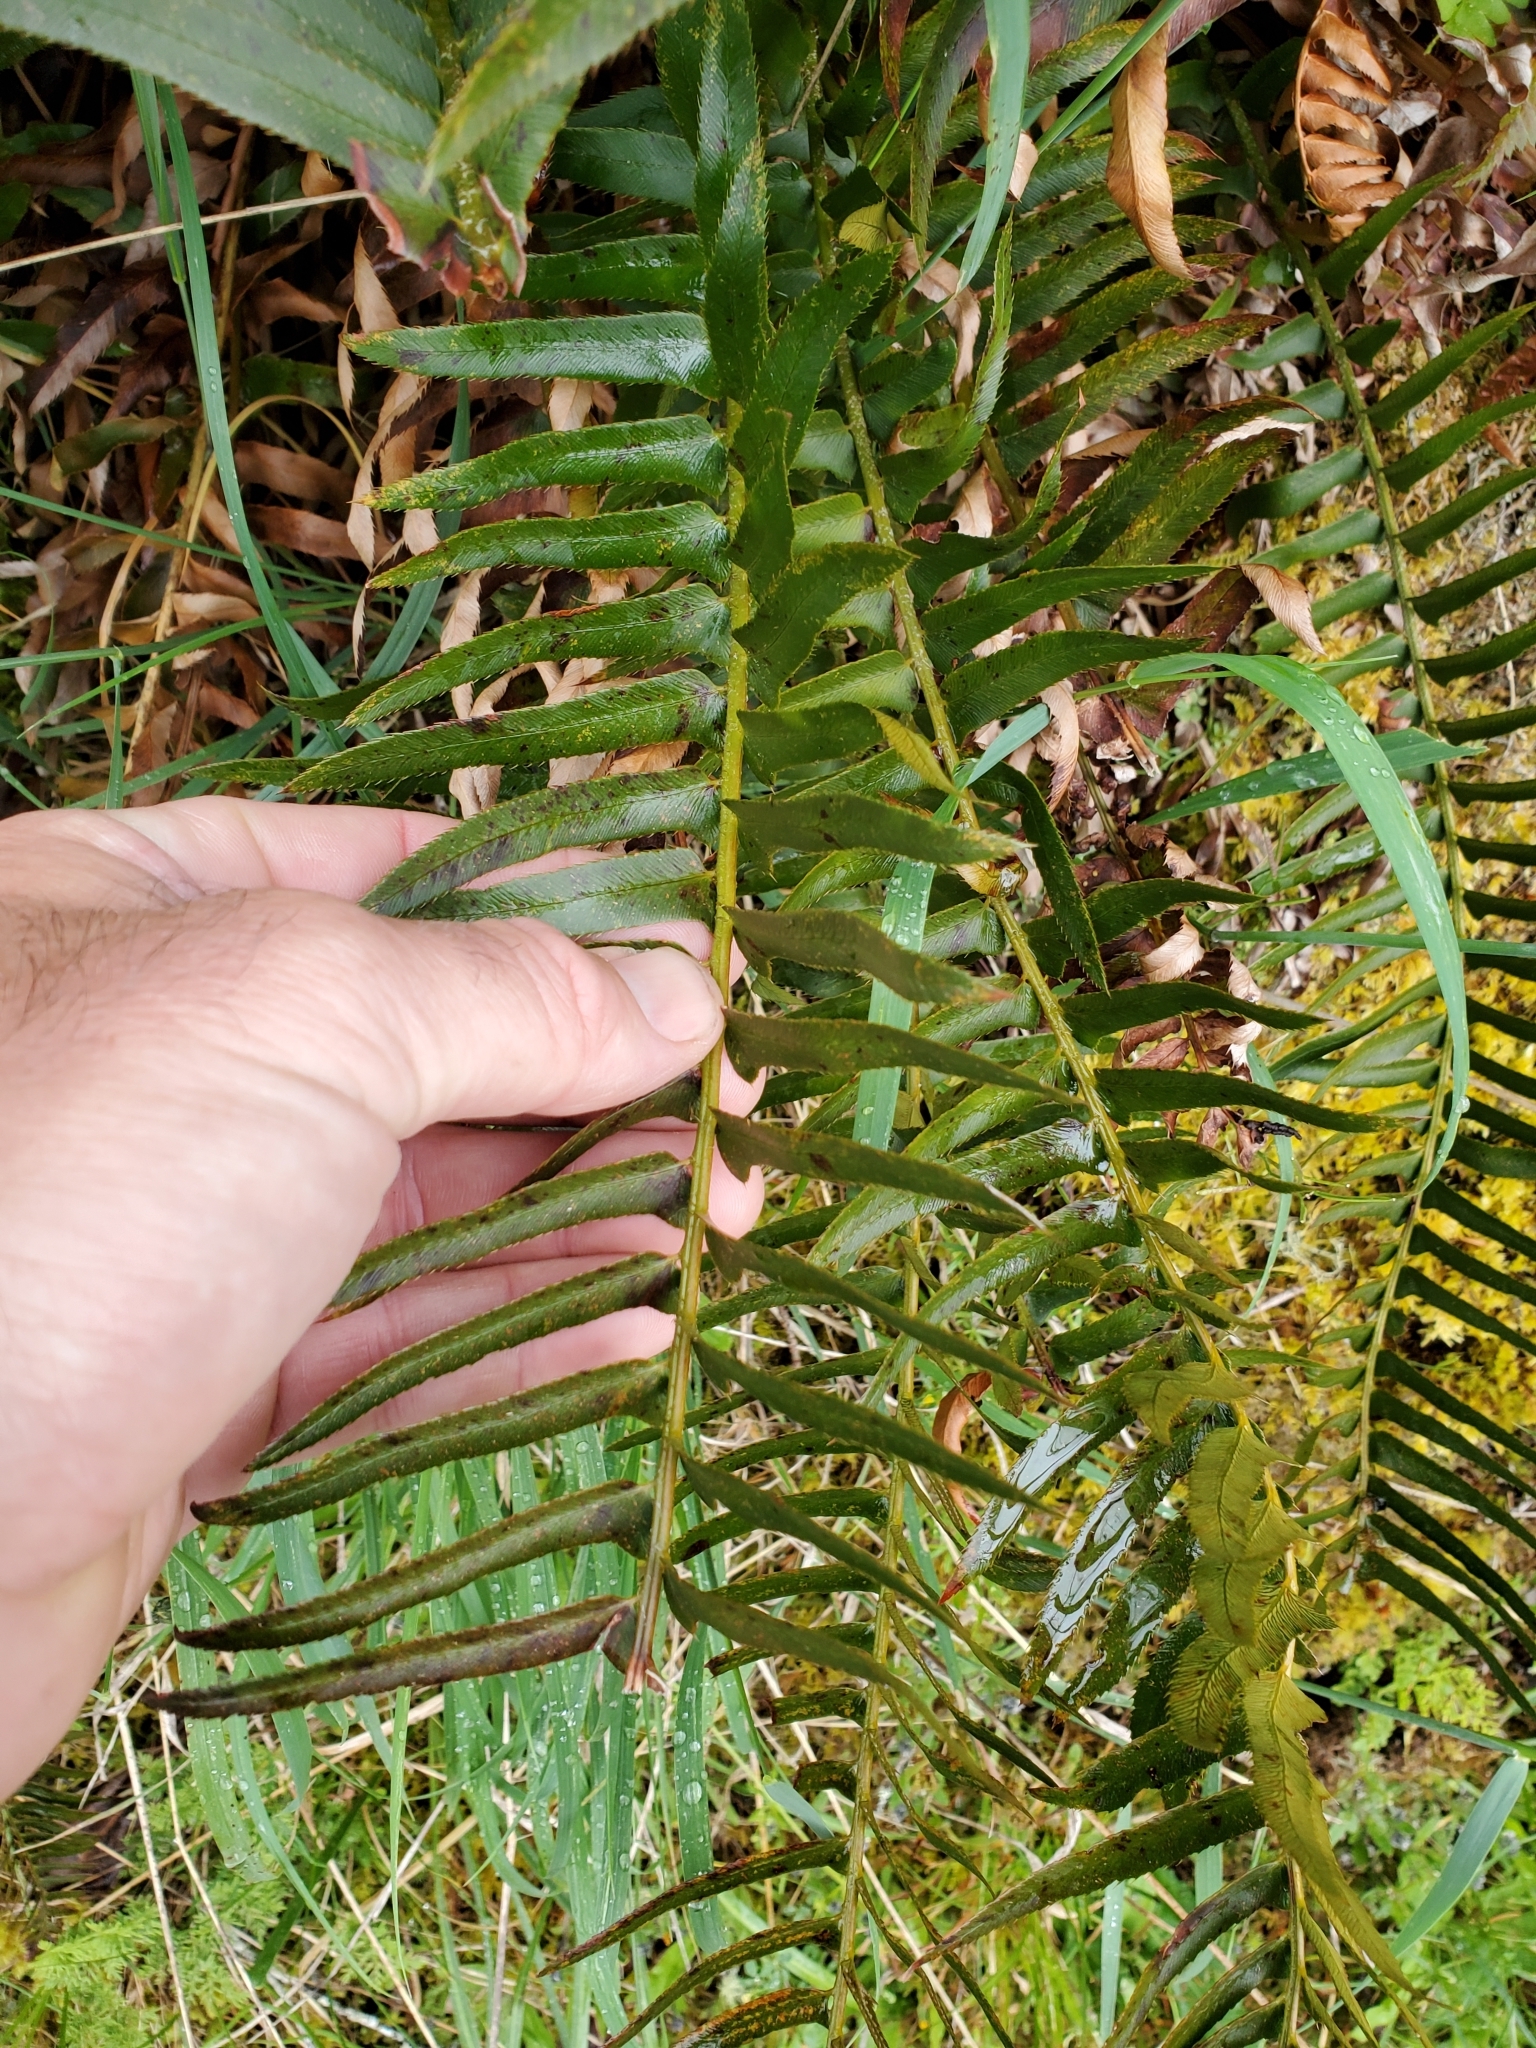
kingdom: Plantae
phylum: Tracheophyta
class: Polypodiopsida
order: Polypodiales
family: Dryopteridaceae
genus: Polystichum
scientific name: Polystichum munitum
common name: Western sword-fern
